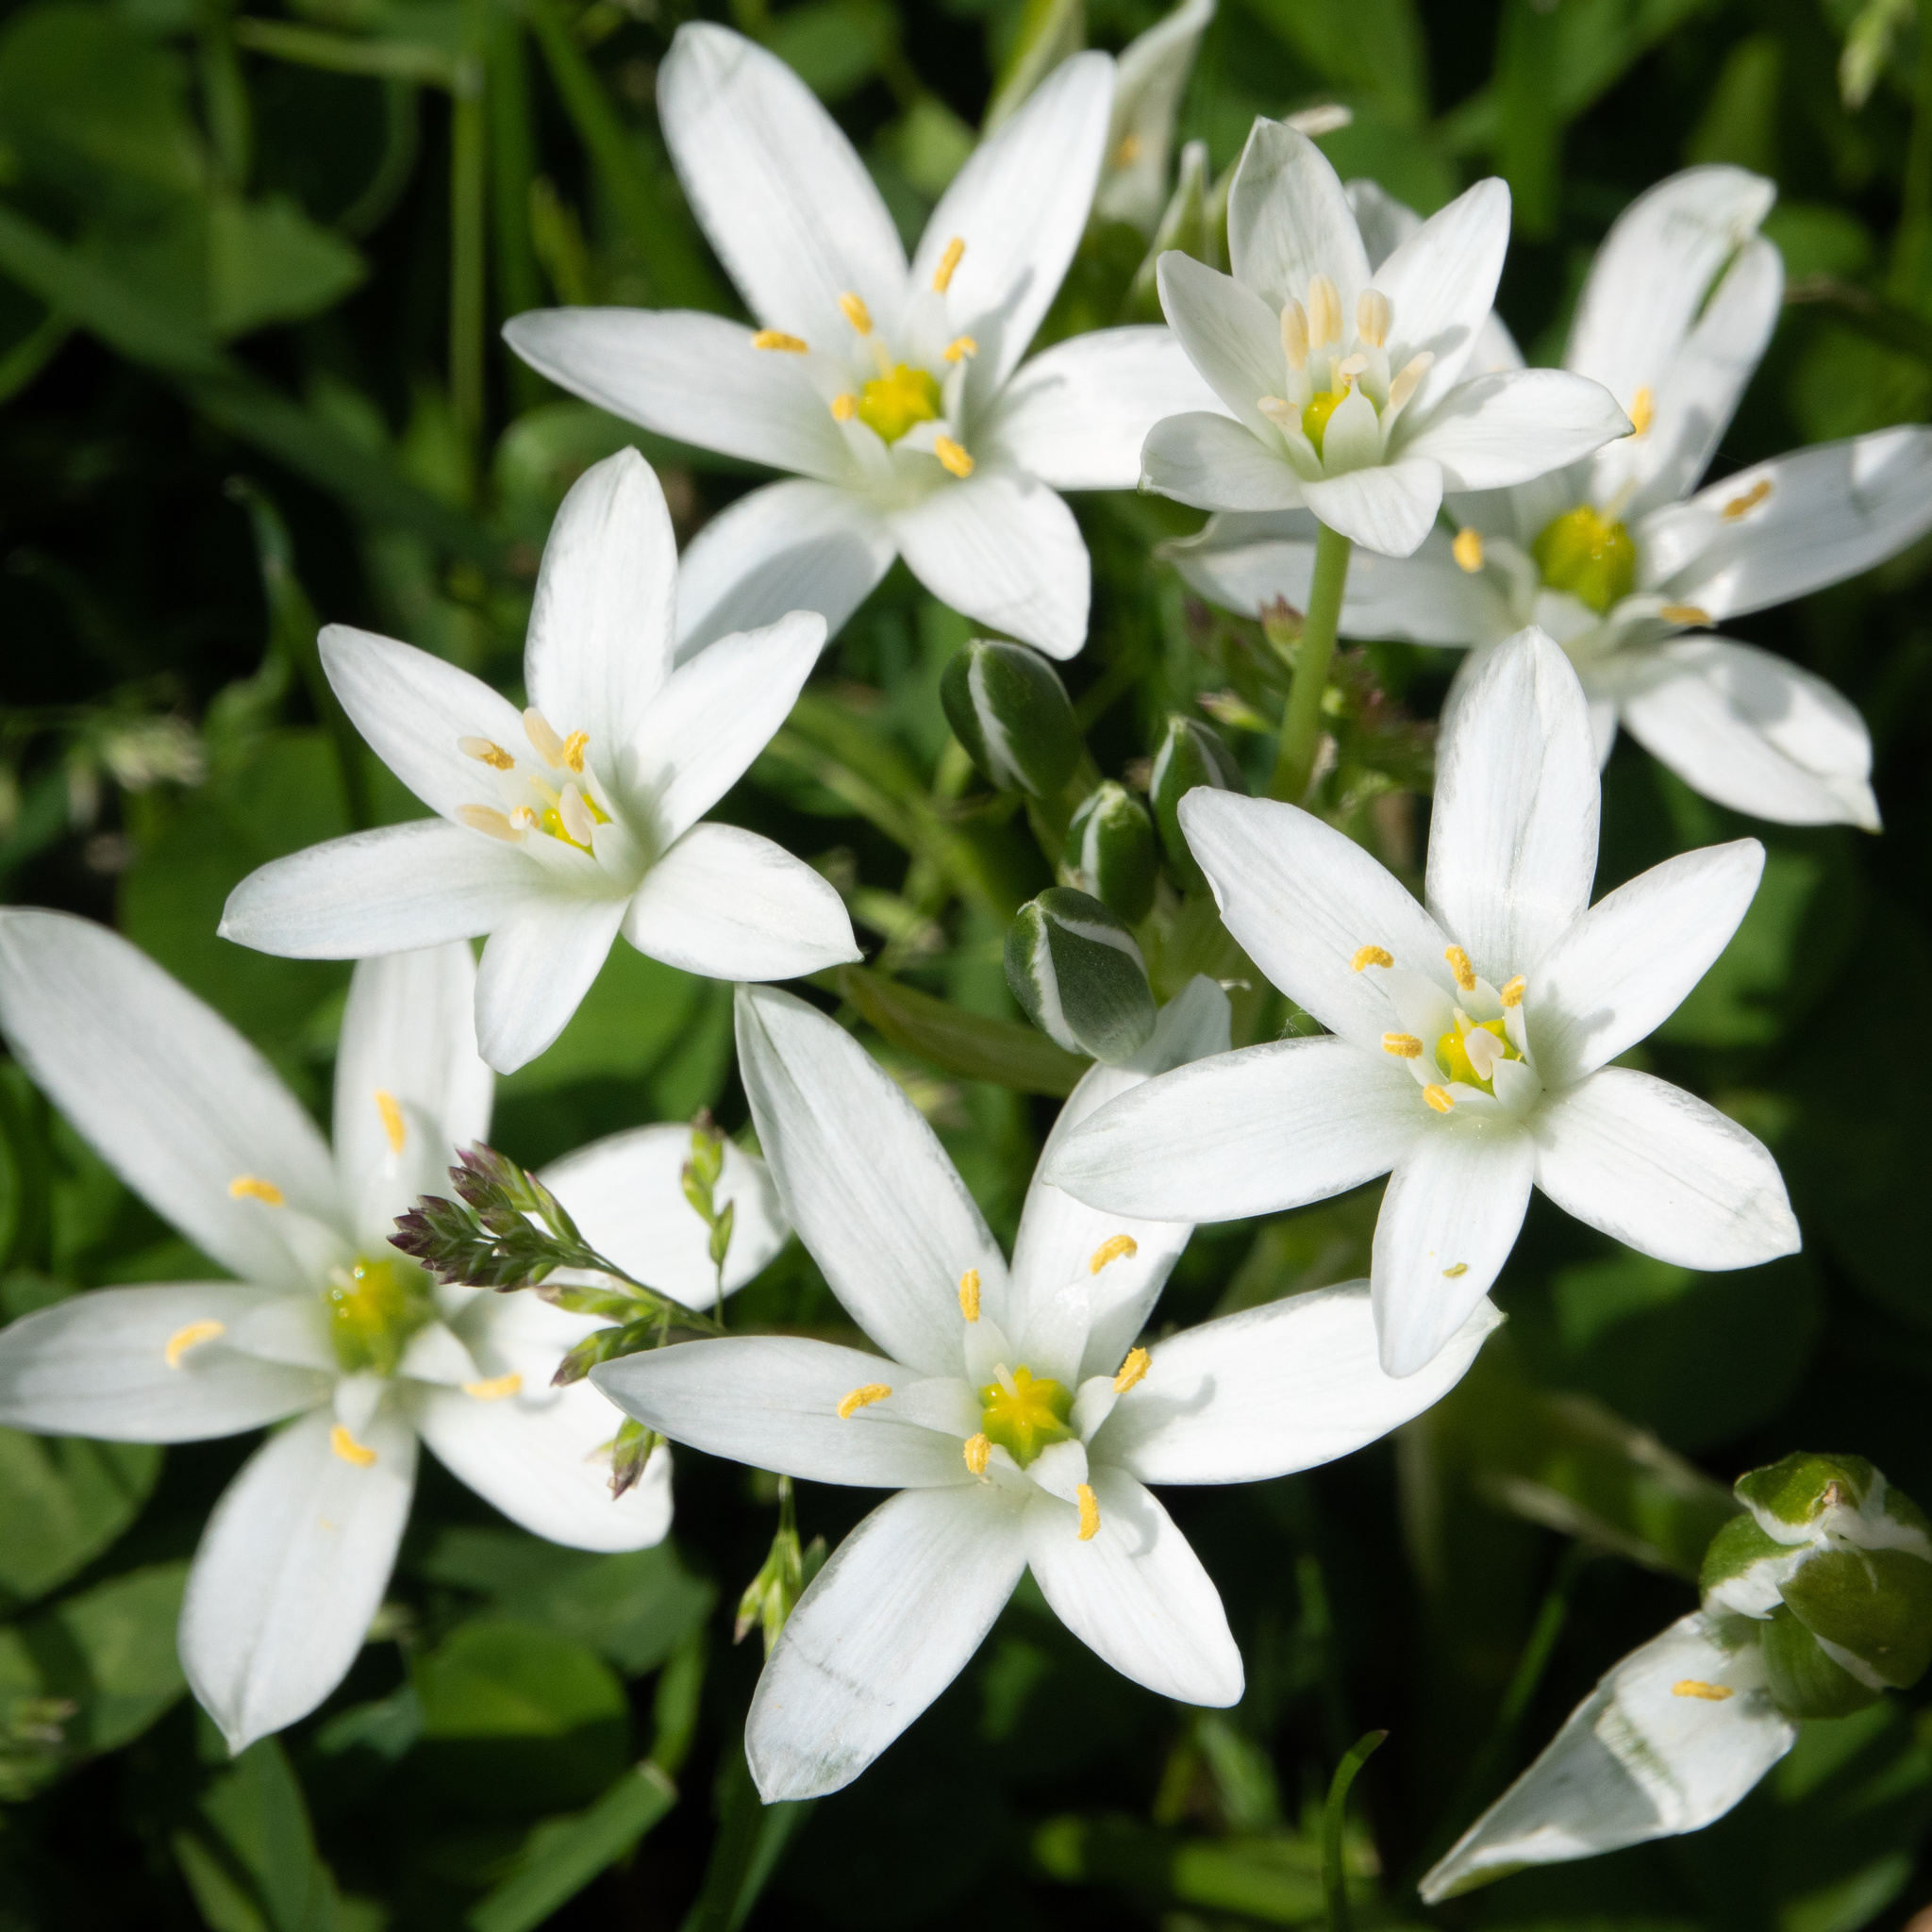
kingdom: Plantae
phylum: Tracheophyta
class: Liliopsida
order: Asparagales
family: Asparagaceae
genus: Ornithogalum
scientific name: Ornithogalum umbellatum
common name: Garden star-of-bethlehem
